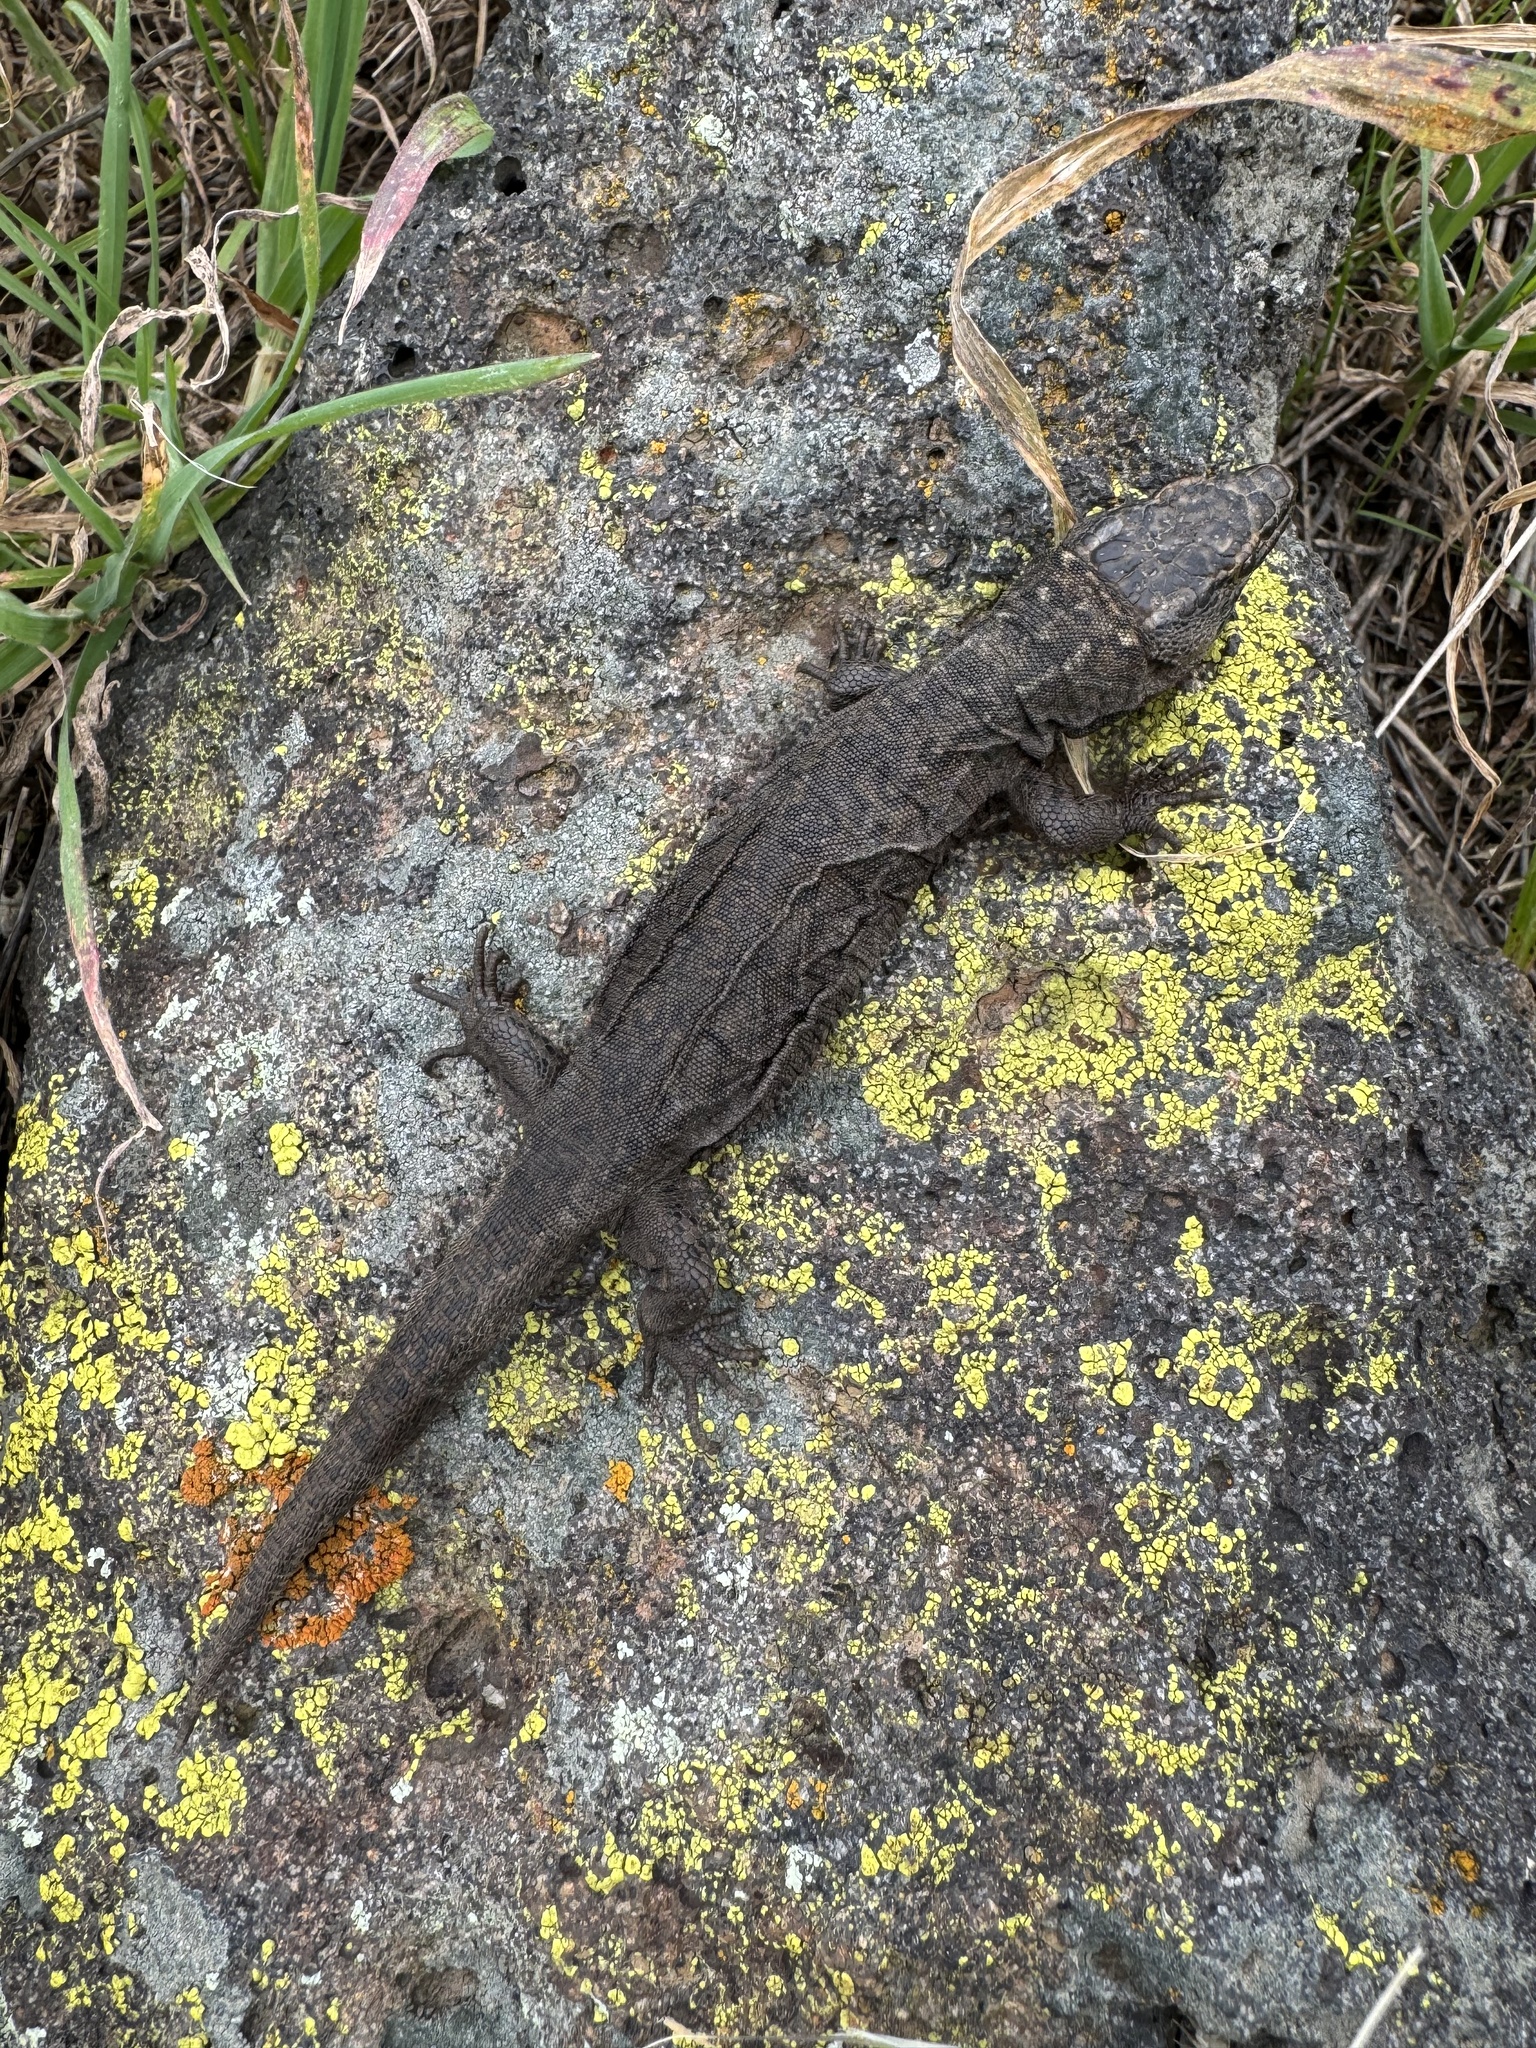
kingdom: Animalia
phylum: Chordata
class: Squamata
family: Xantusiidae
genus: Xantusia
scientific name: Xantusia riversiana
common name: Island night lizard
